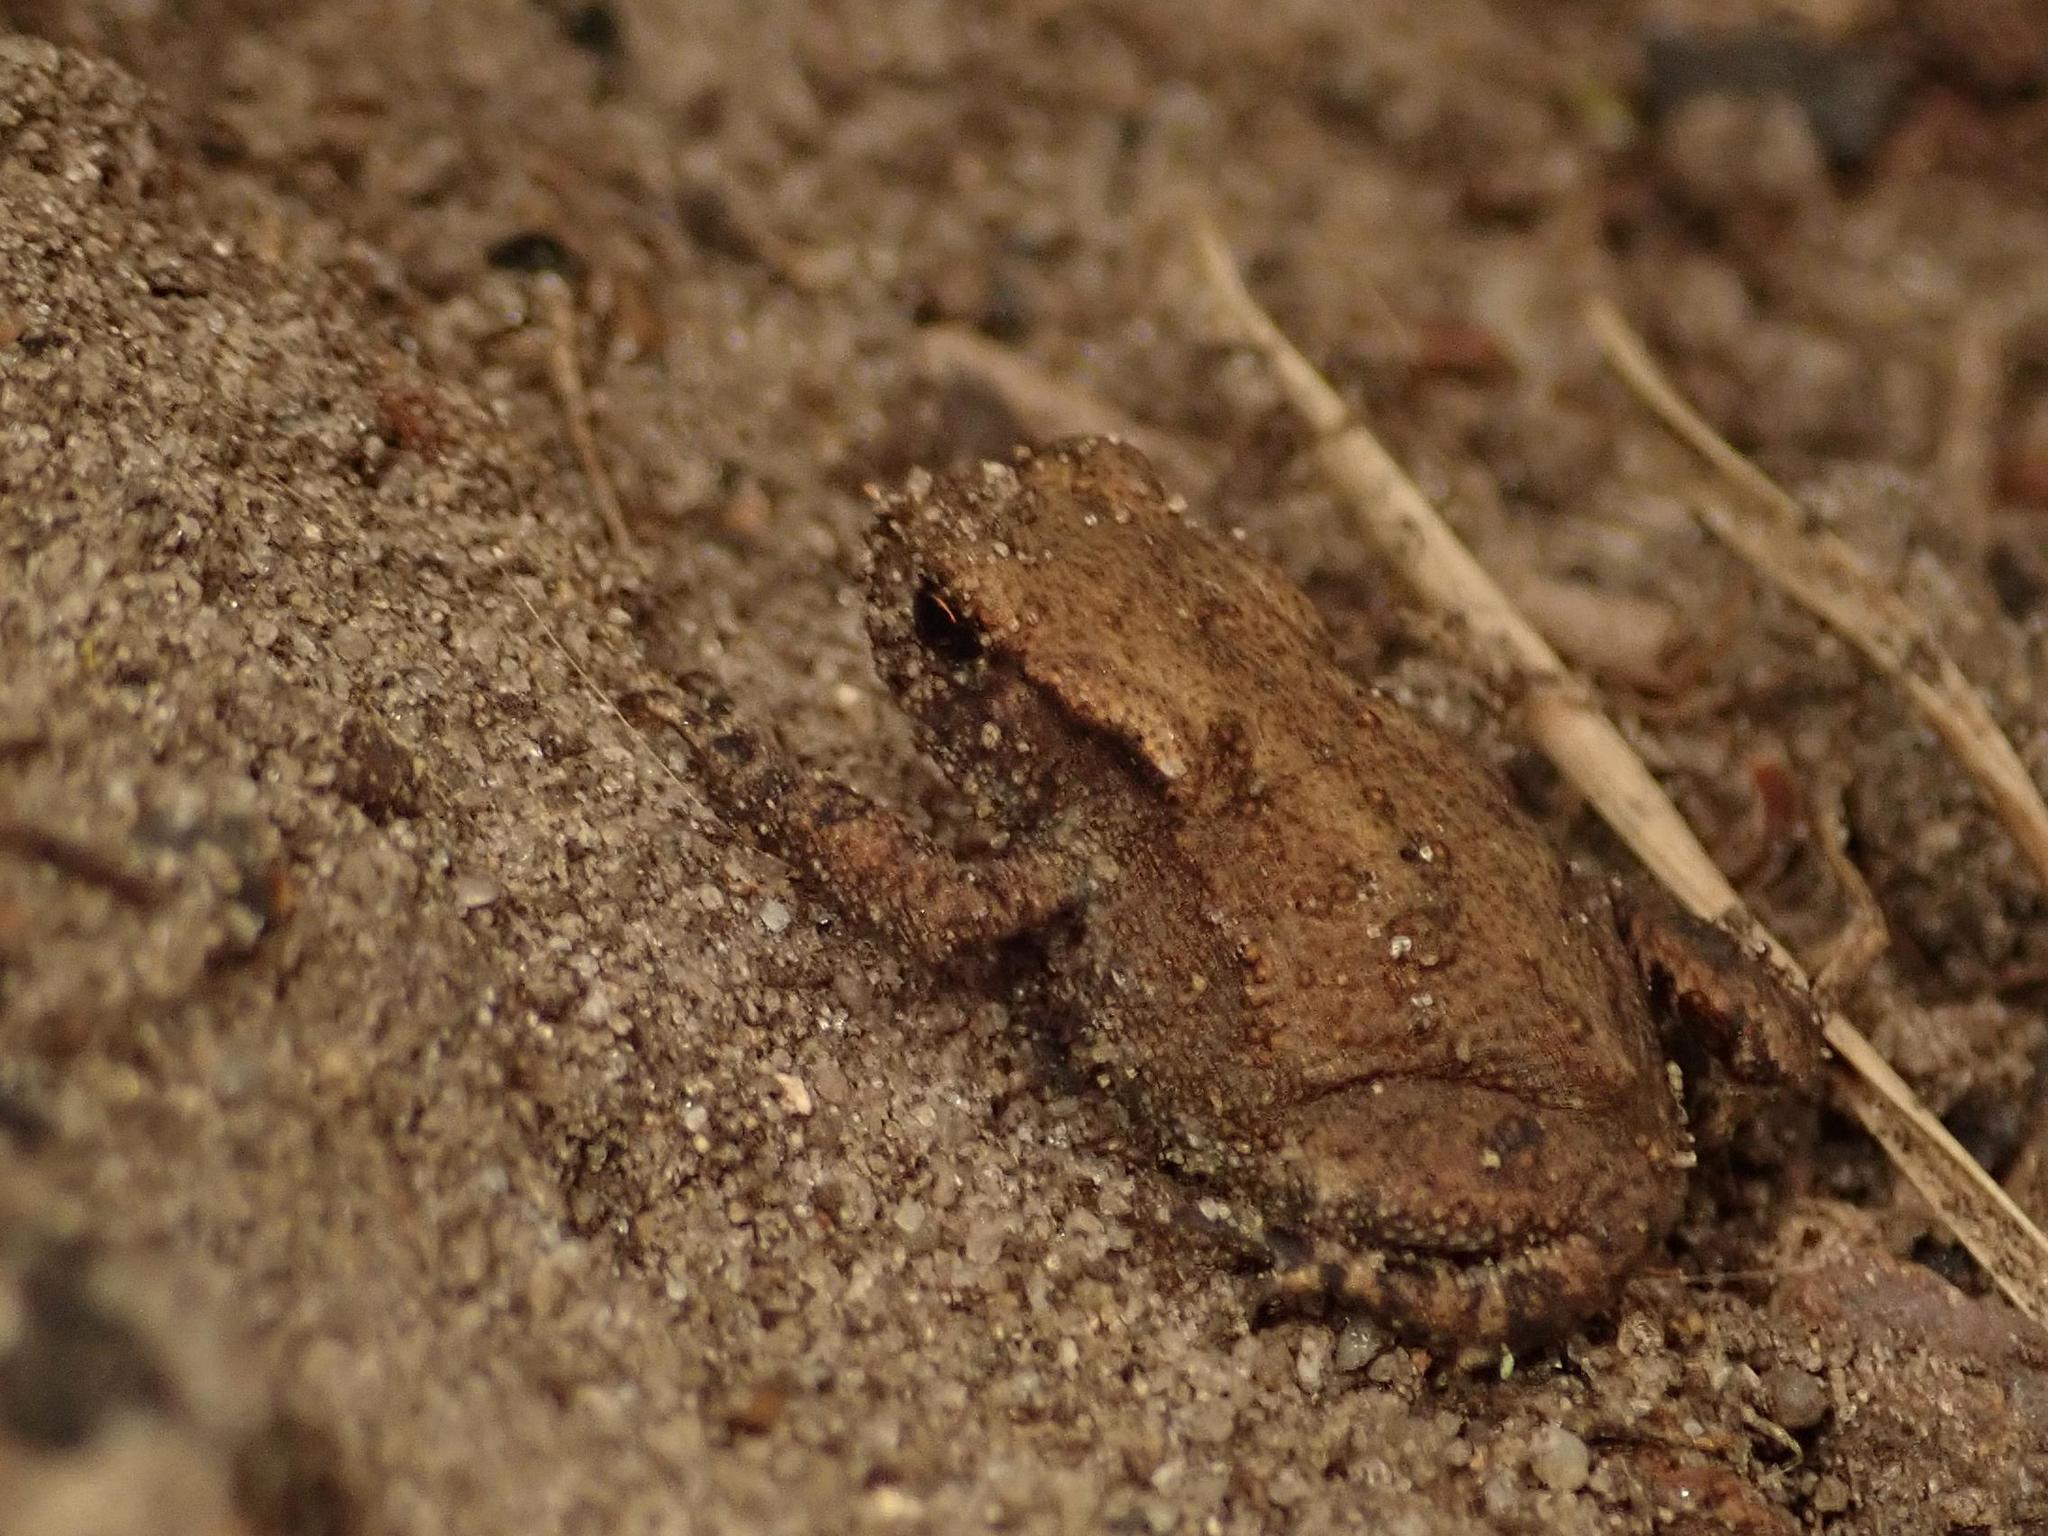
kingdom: Animalia
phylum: Chordata
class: Amphibia
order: Anura
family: Bufonidae
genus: Bufo
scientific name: Bufo bufo
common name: Common toad
